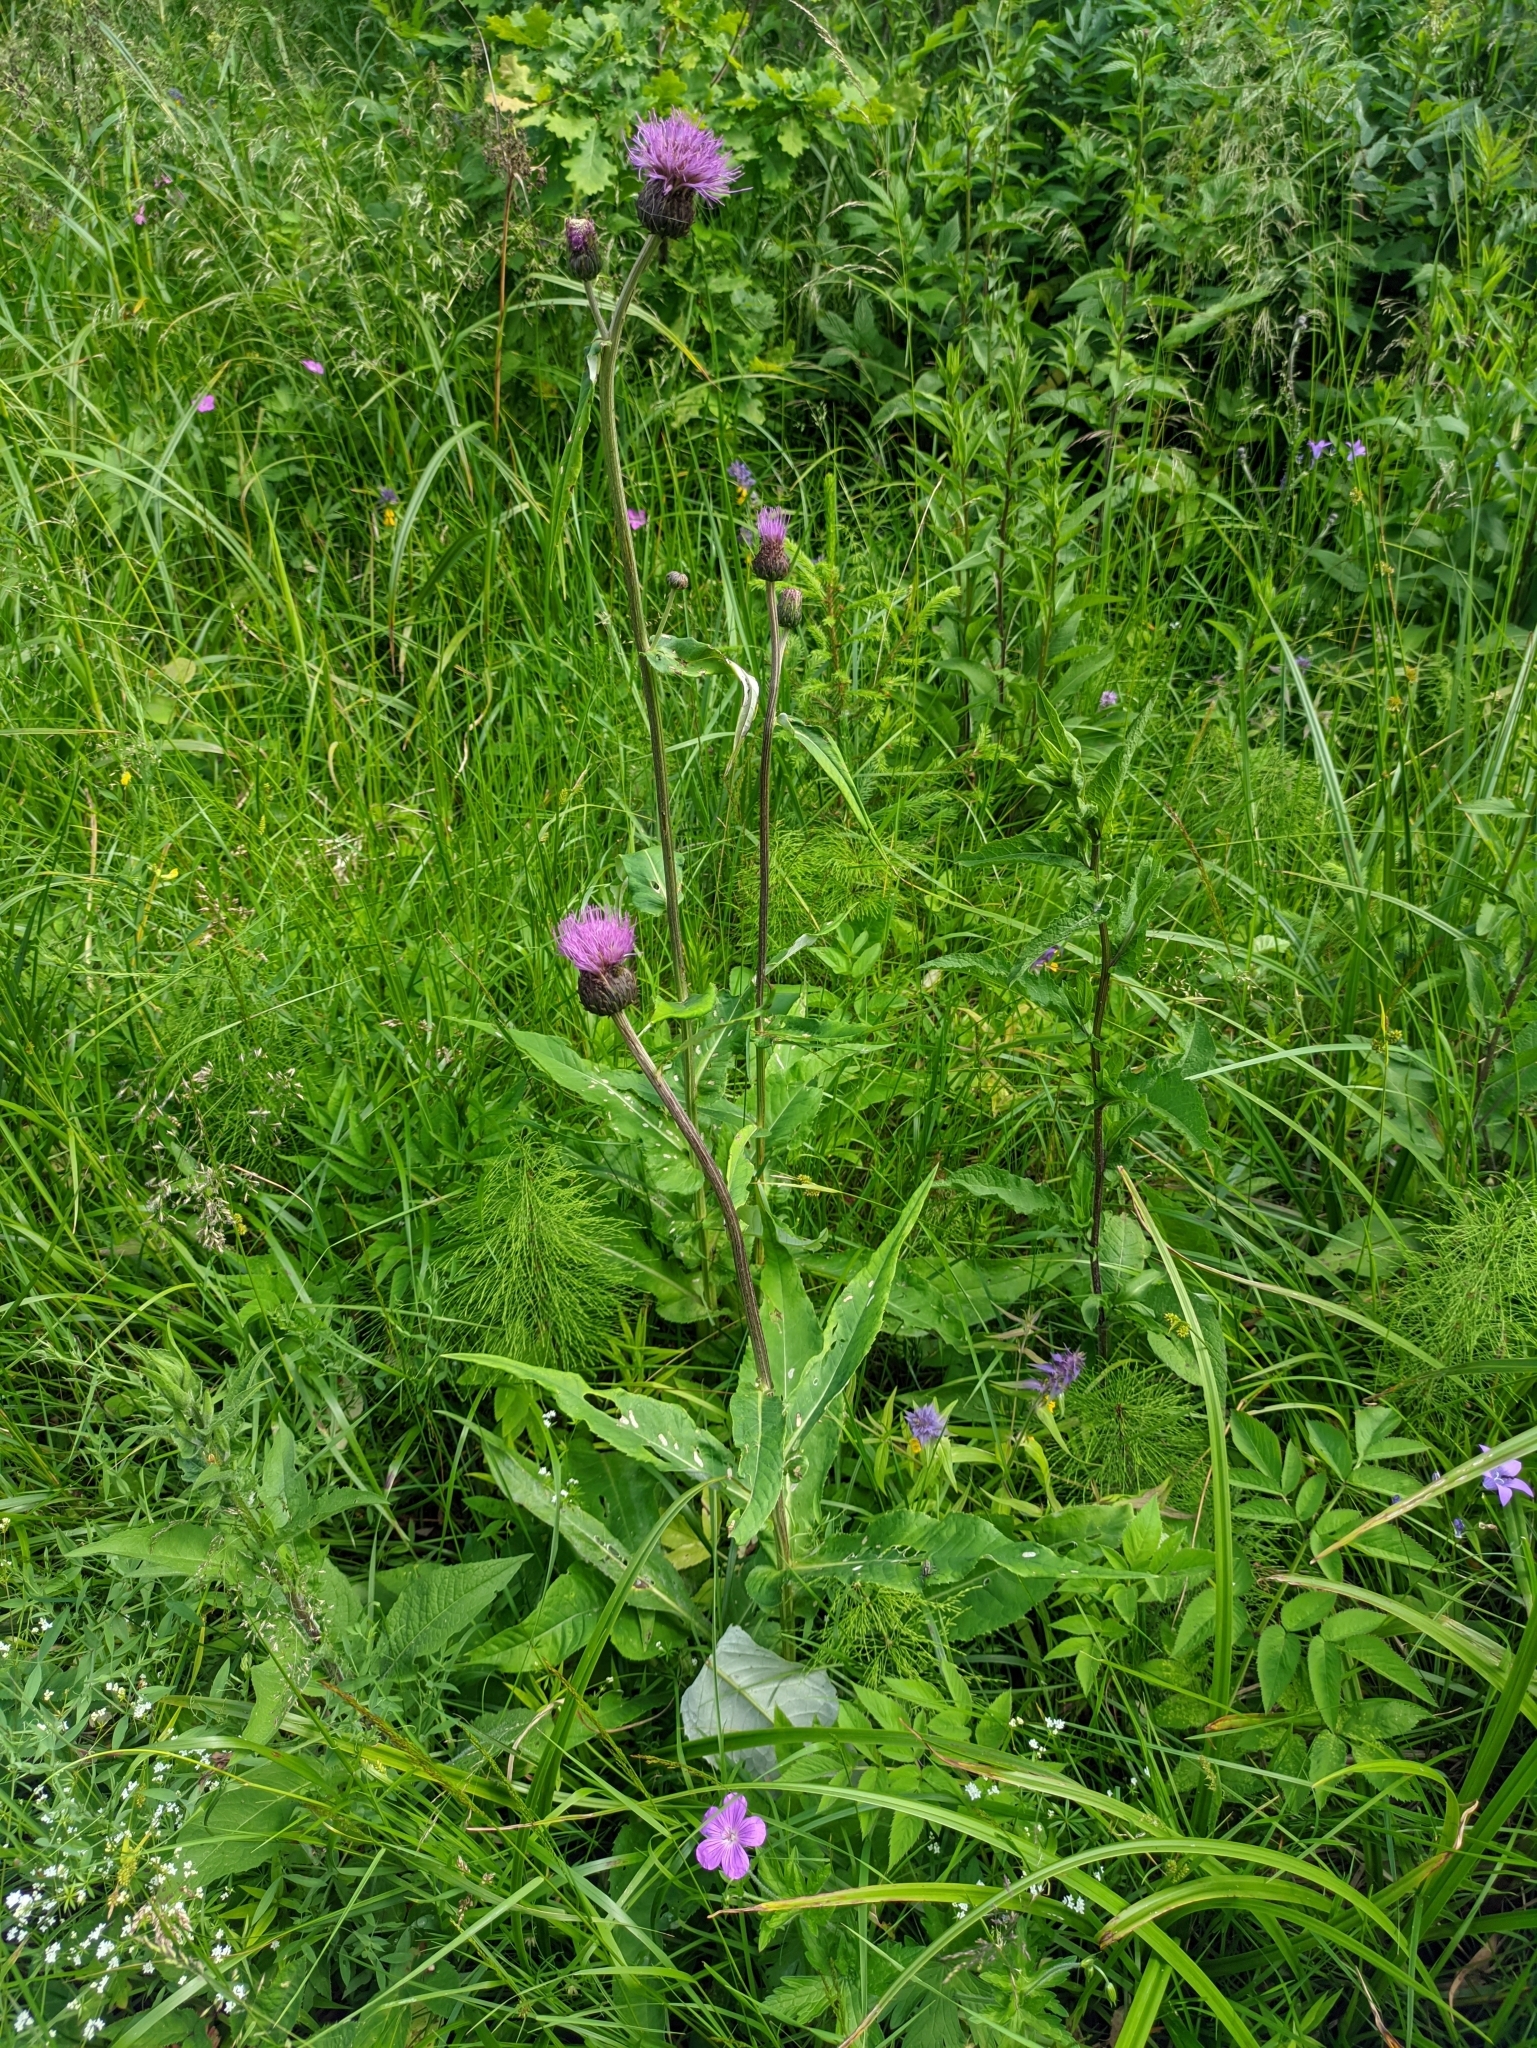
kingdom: Plantae
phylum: Tracheophyta
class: Magnoliopsida
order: Asterales
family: Asteraceae
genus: Cirsium
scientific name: Cirsium heterophyllum
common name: Melancholy thistle
